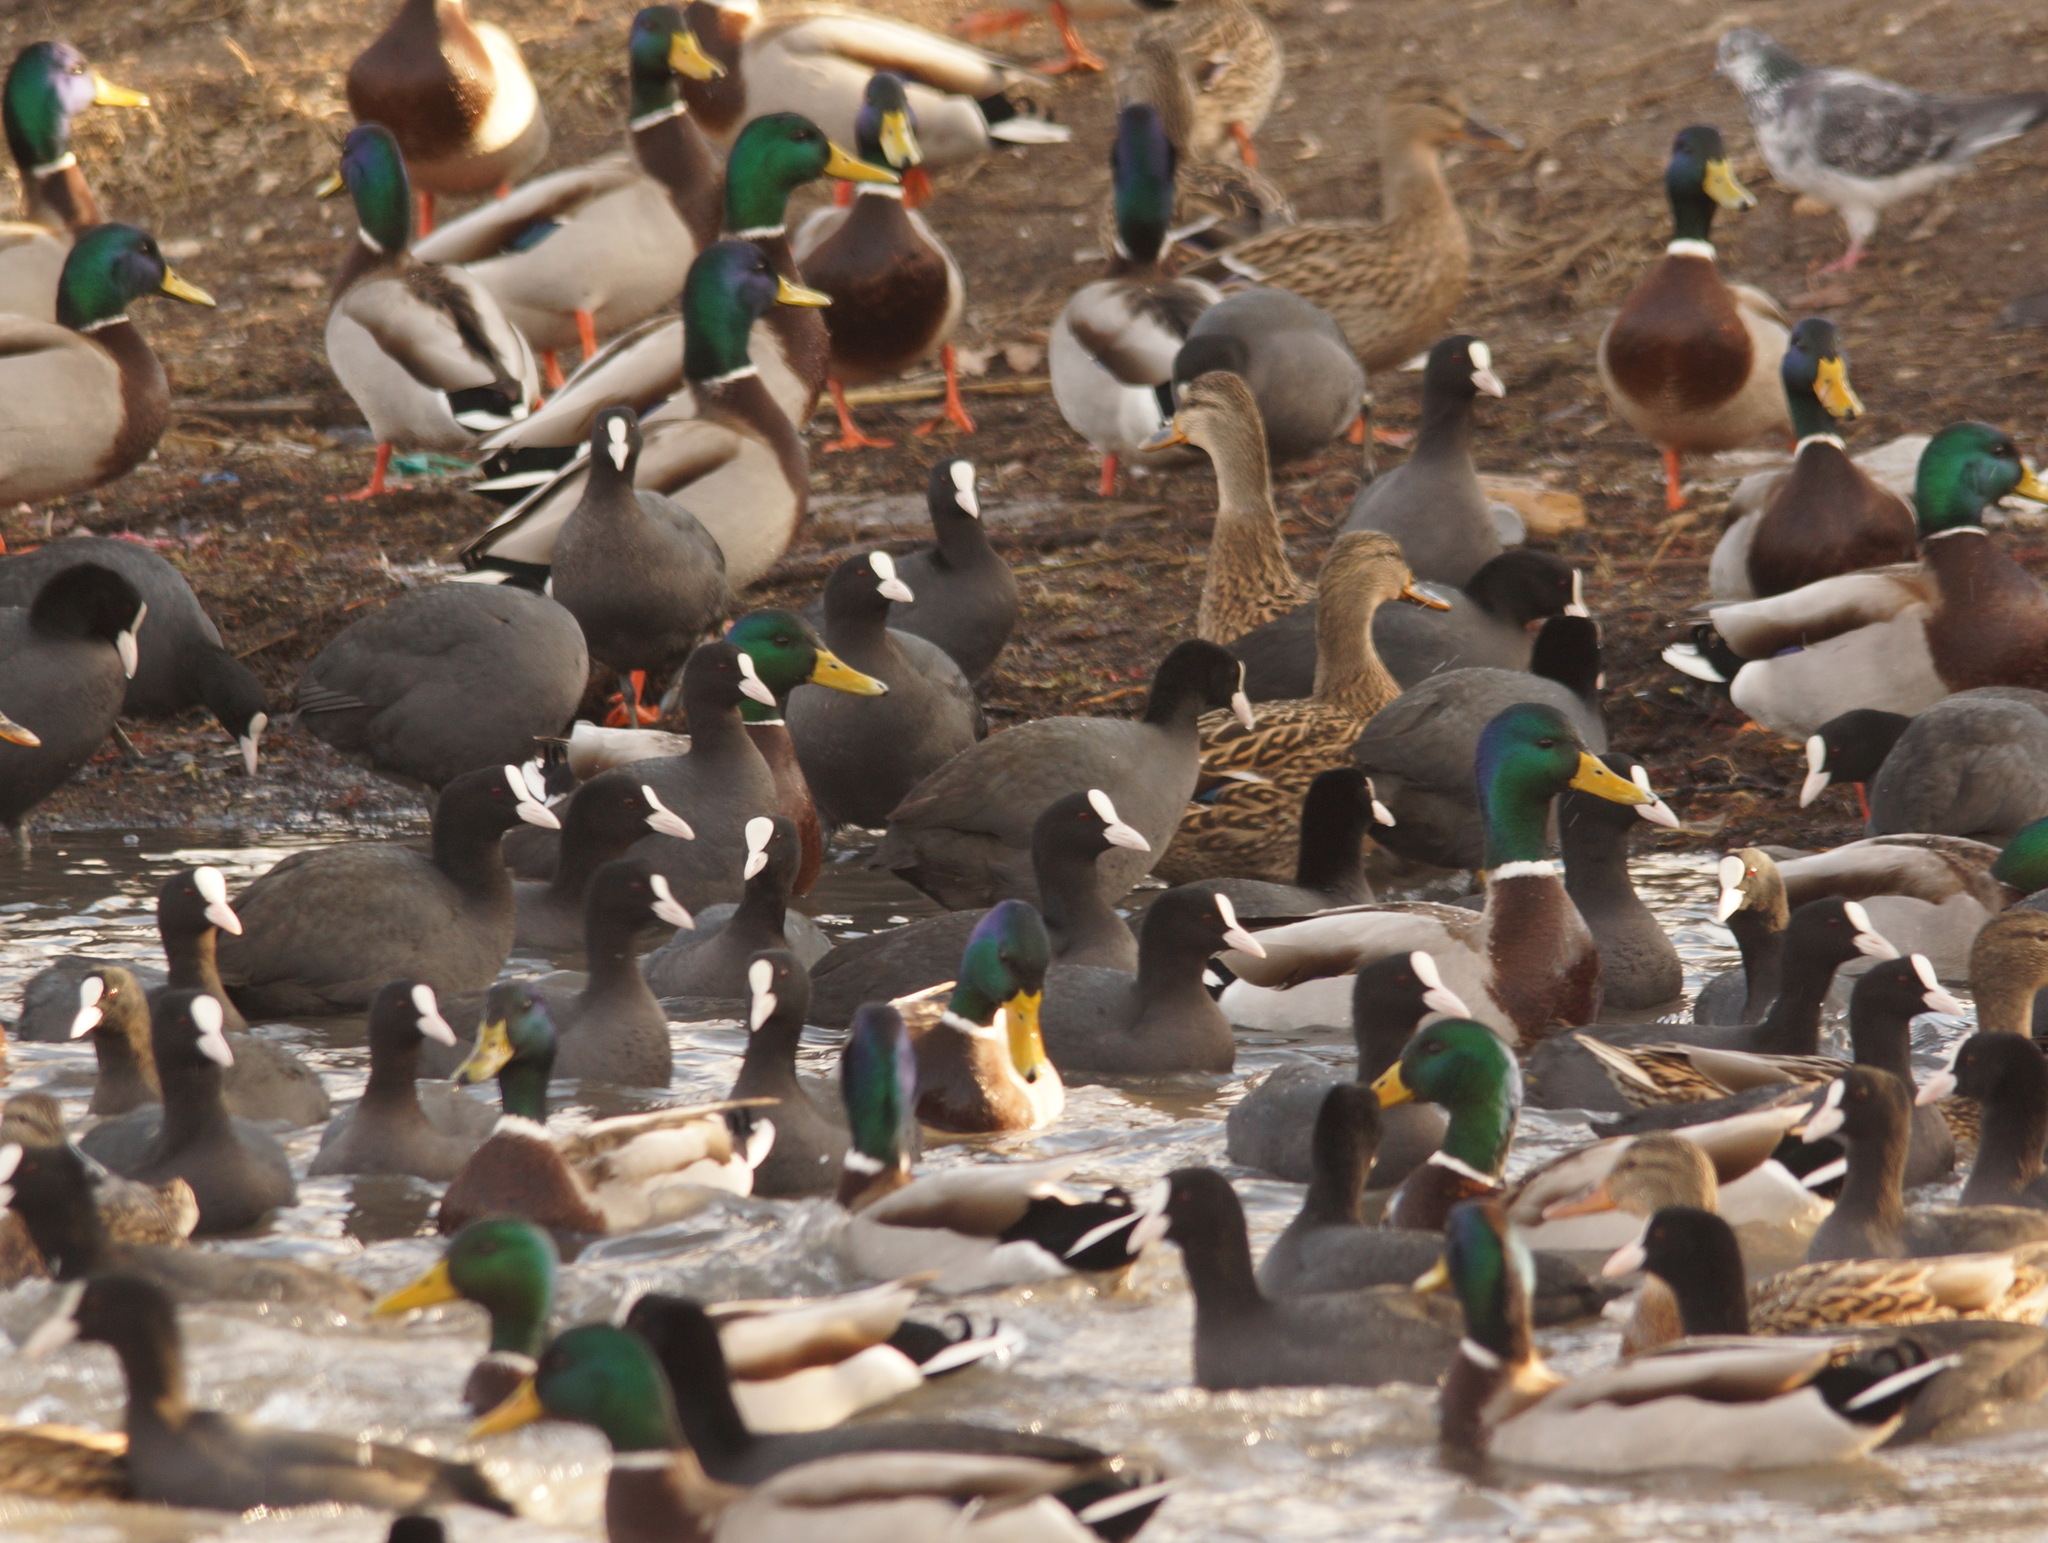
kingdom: Animalia
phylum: Chordata
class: Aves
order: Anseriformes
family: Anatidae
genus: Anas
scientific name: Anas platyrhynchos
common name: Mallard
